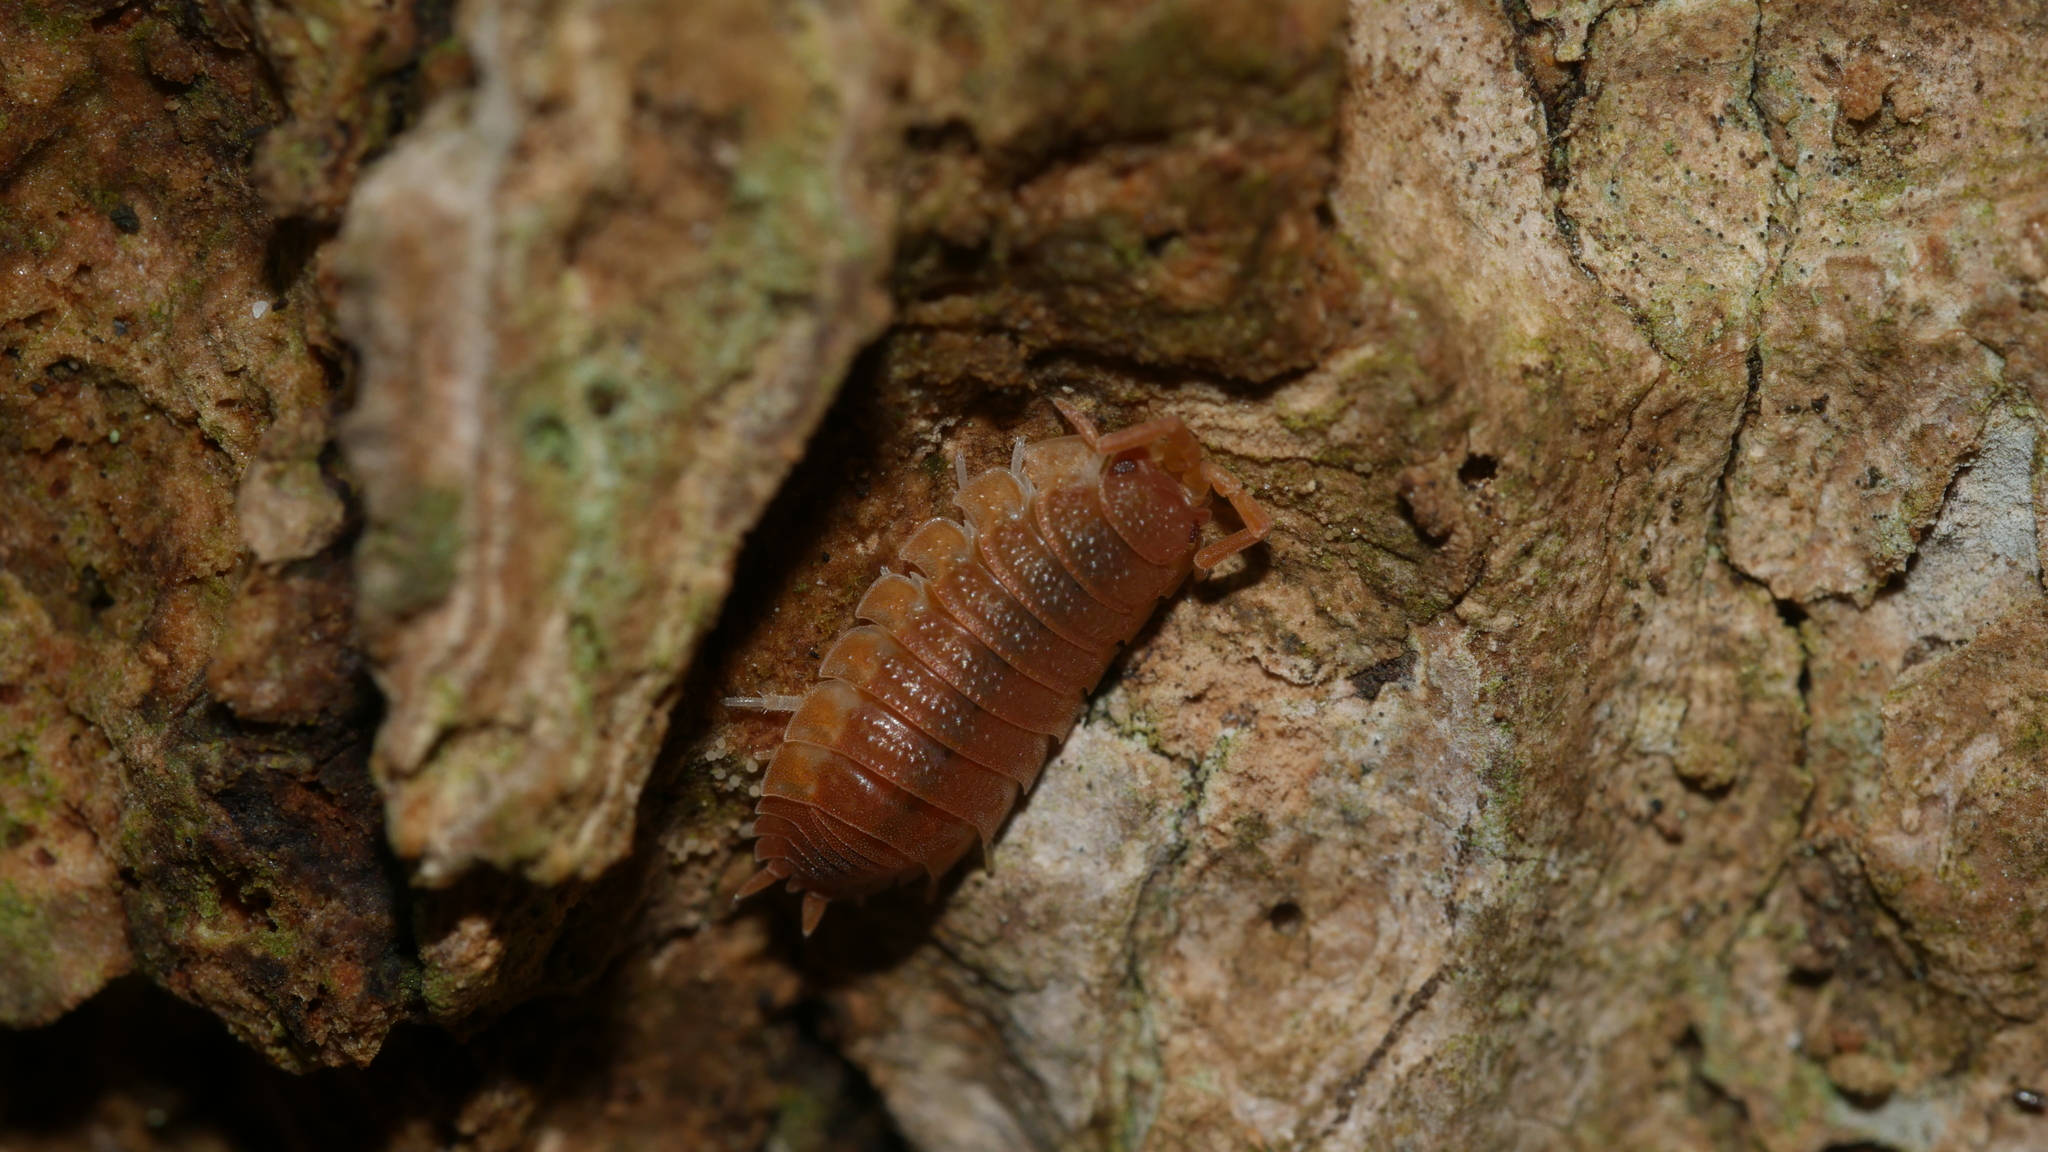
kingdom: Animalia
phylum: Arthropoda
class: Malacostraca
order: Isopoda
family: Porcellionidae
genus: Porcellio
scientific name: Porcellio scaber
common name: Common rough woodlouse
